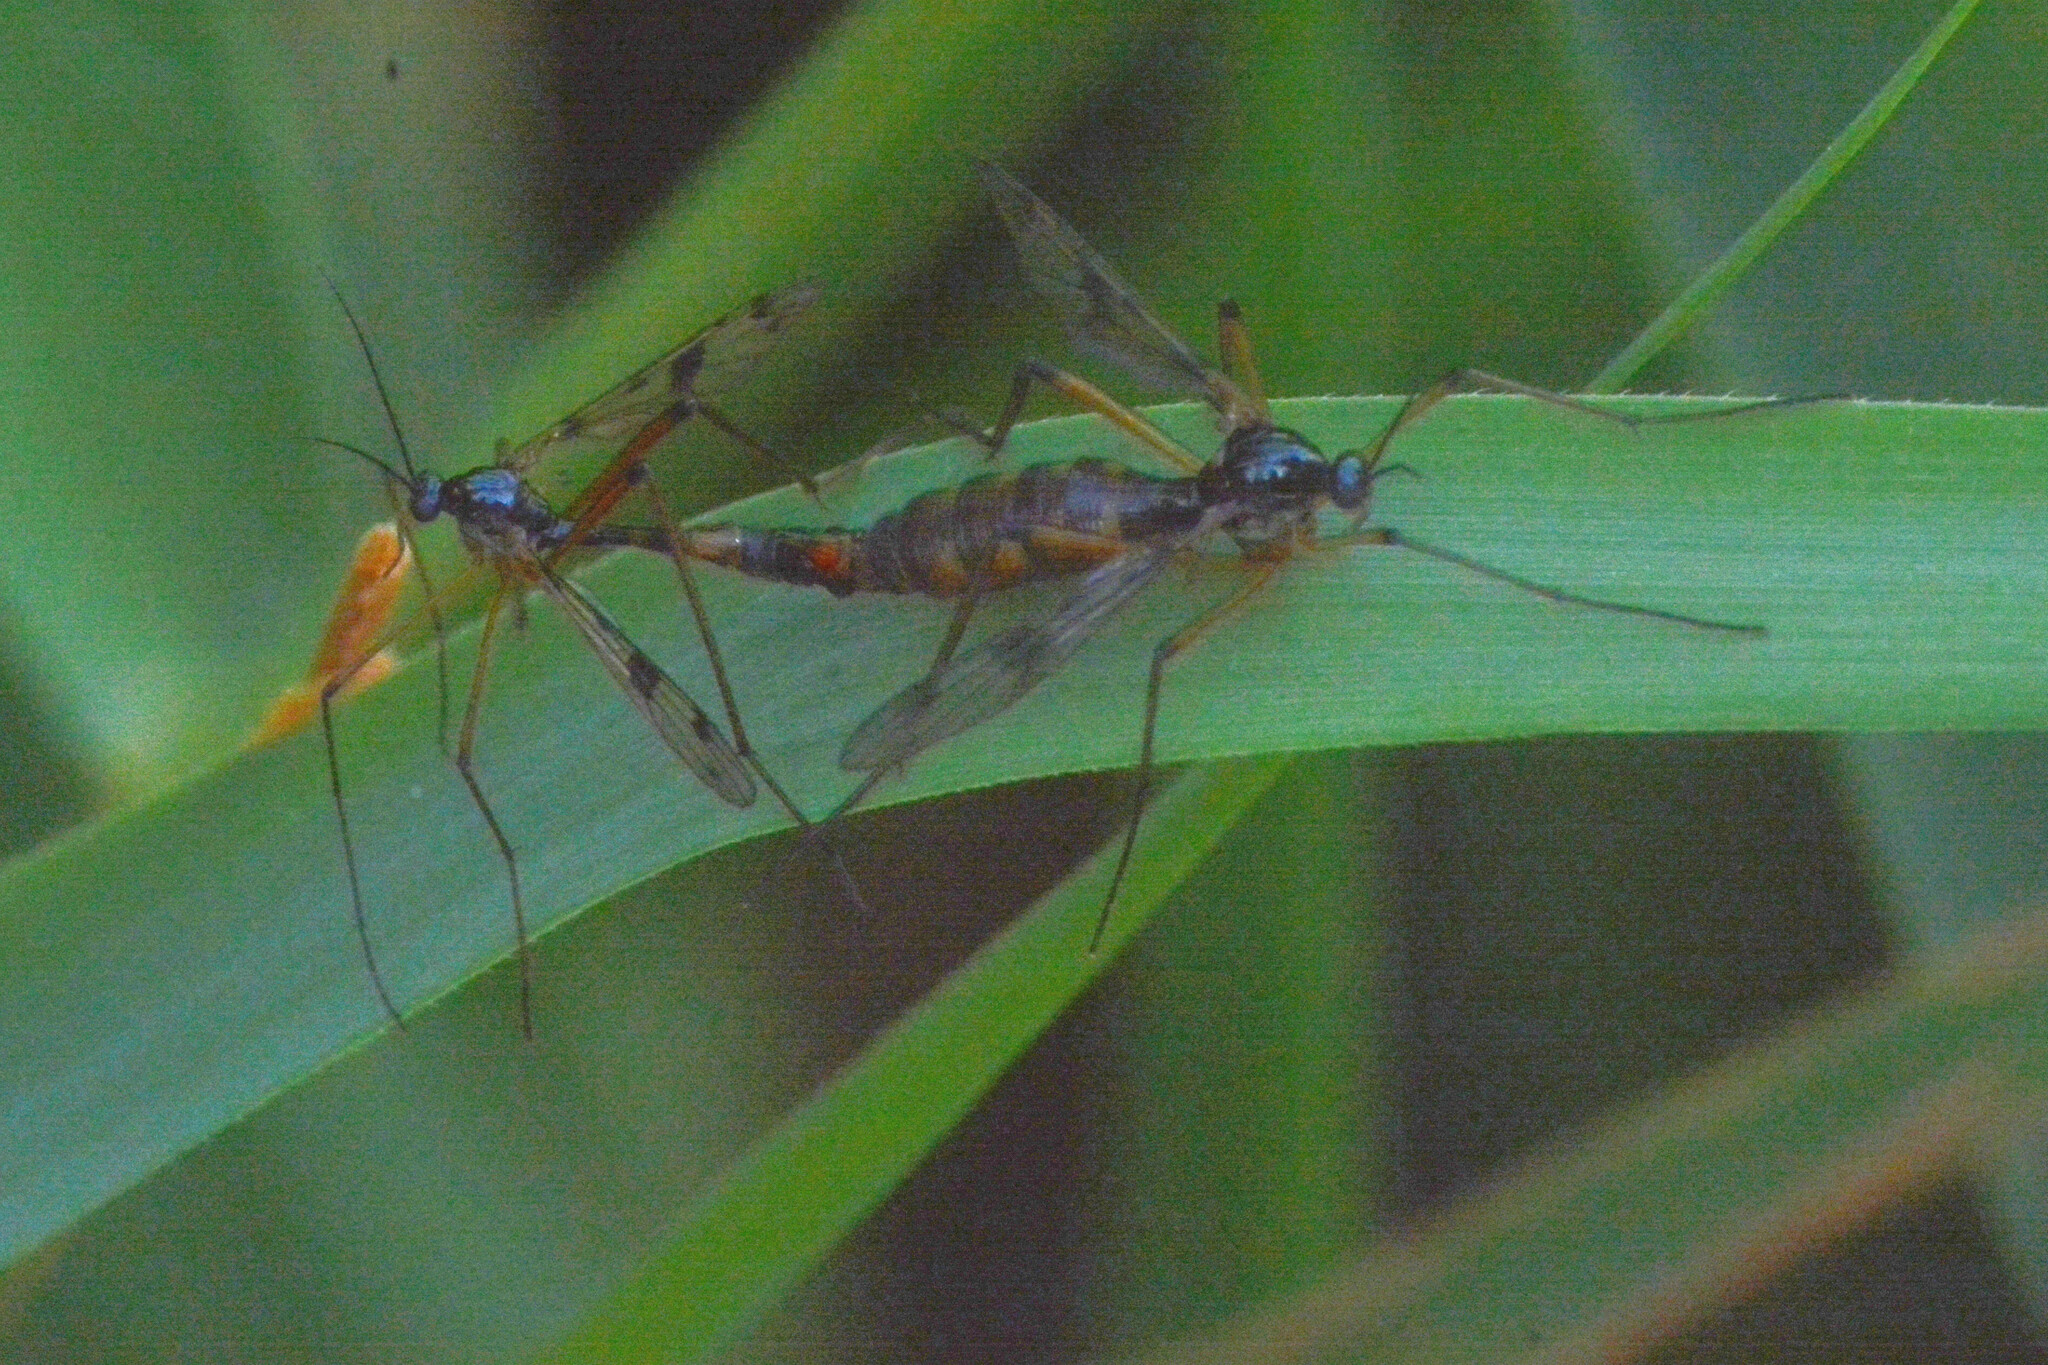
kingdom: Animalia
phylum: Arthropoda
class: Insecta
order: Diptera
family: Ptychopteridae
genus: Ptychoptera
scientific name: Ptychoptera contaminata
